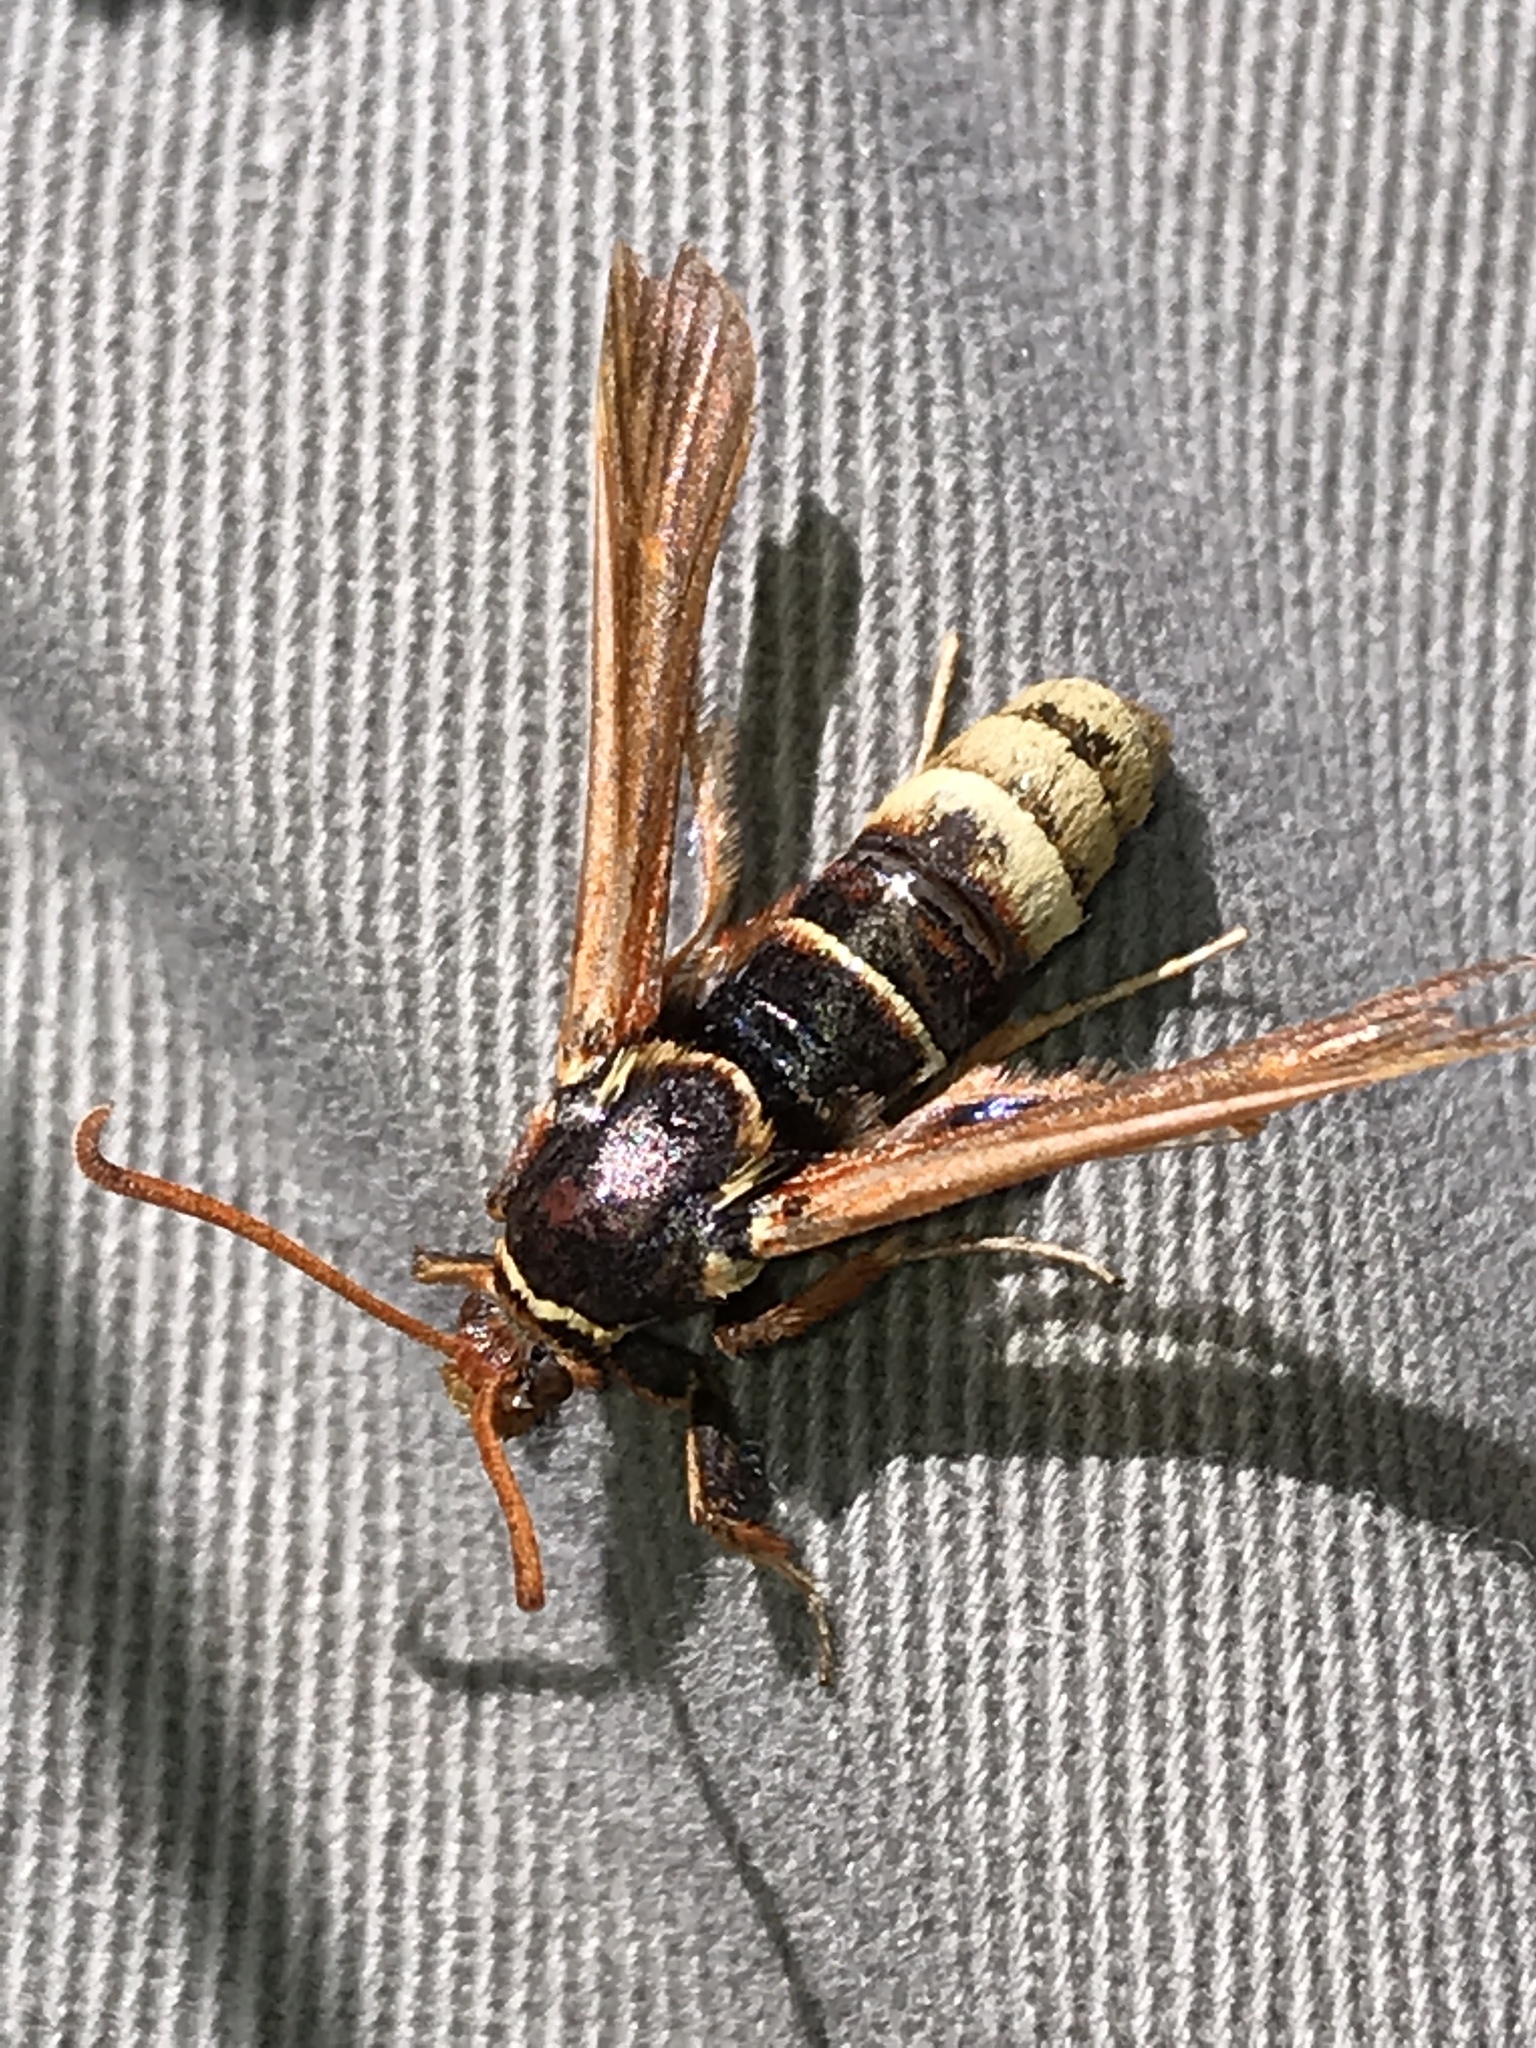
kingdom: Animalia
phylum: Arthropoda
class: Insecta
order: Lepidoptera
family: Sesiidae
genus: Paranthrene
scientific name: Paranthrene robiniae
